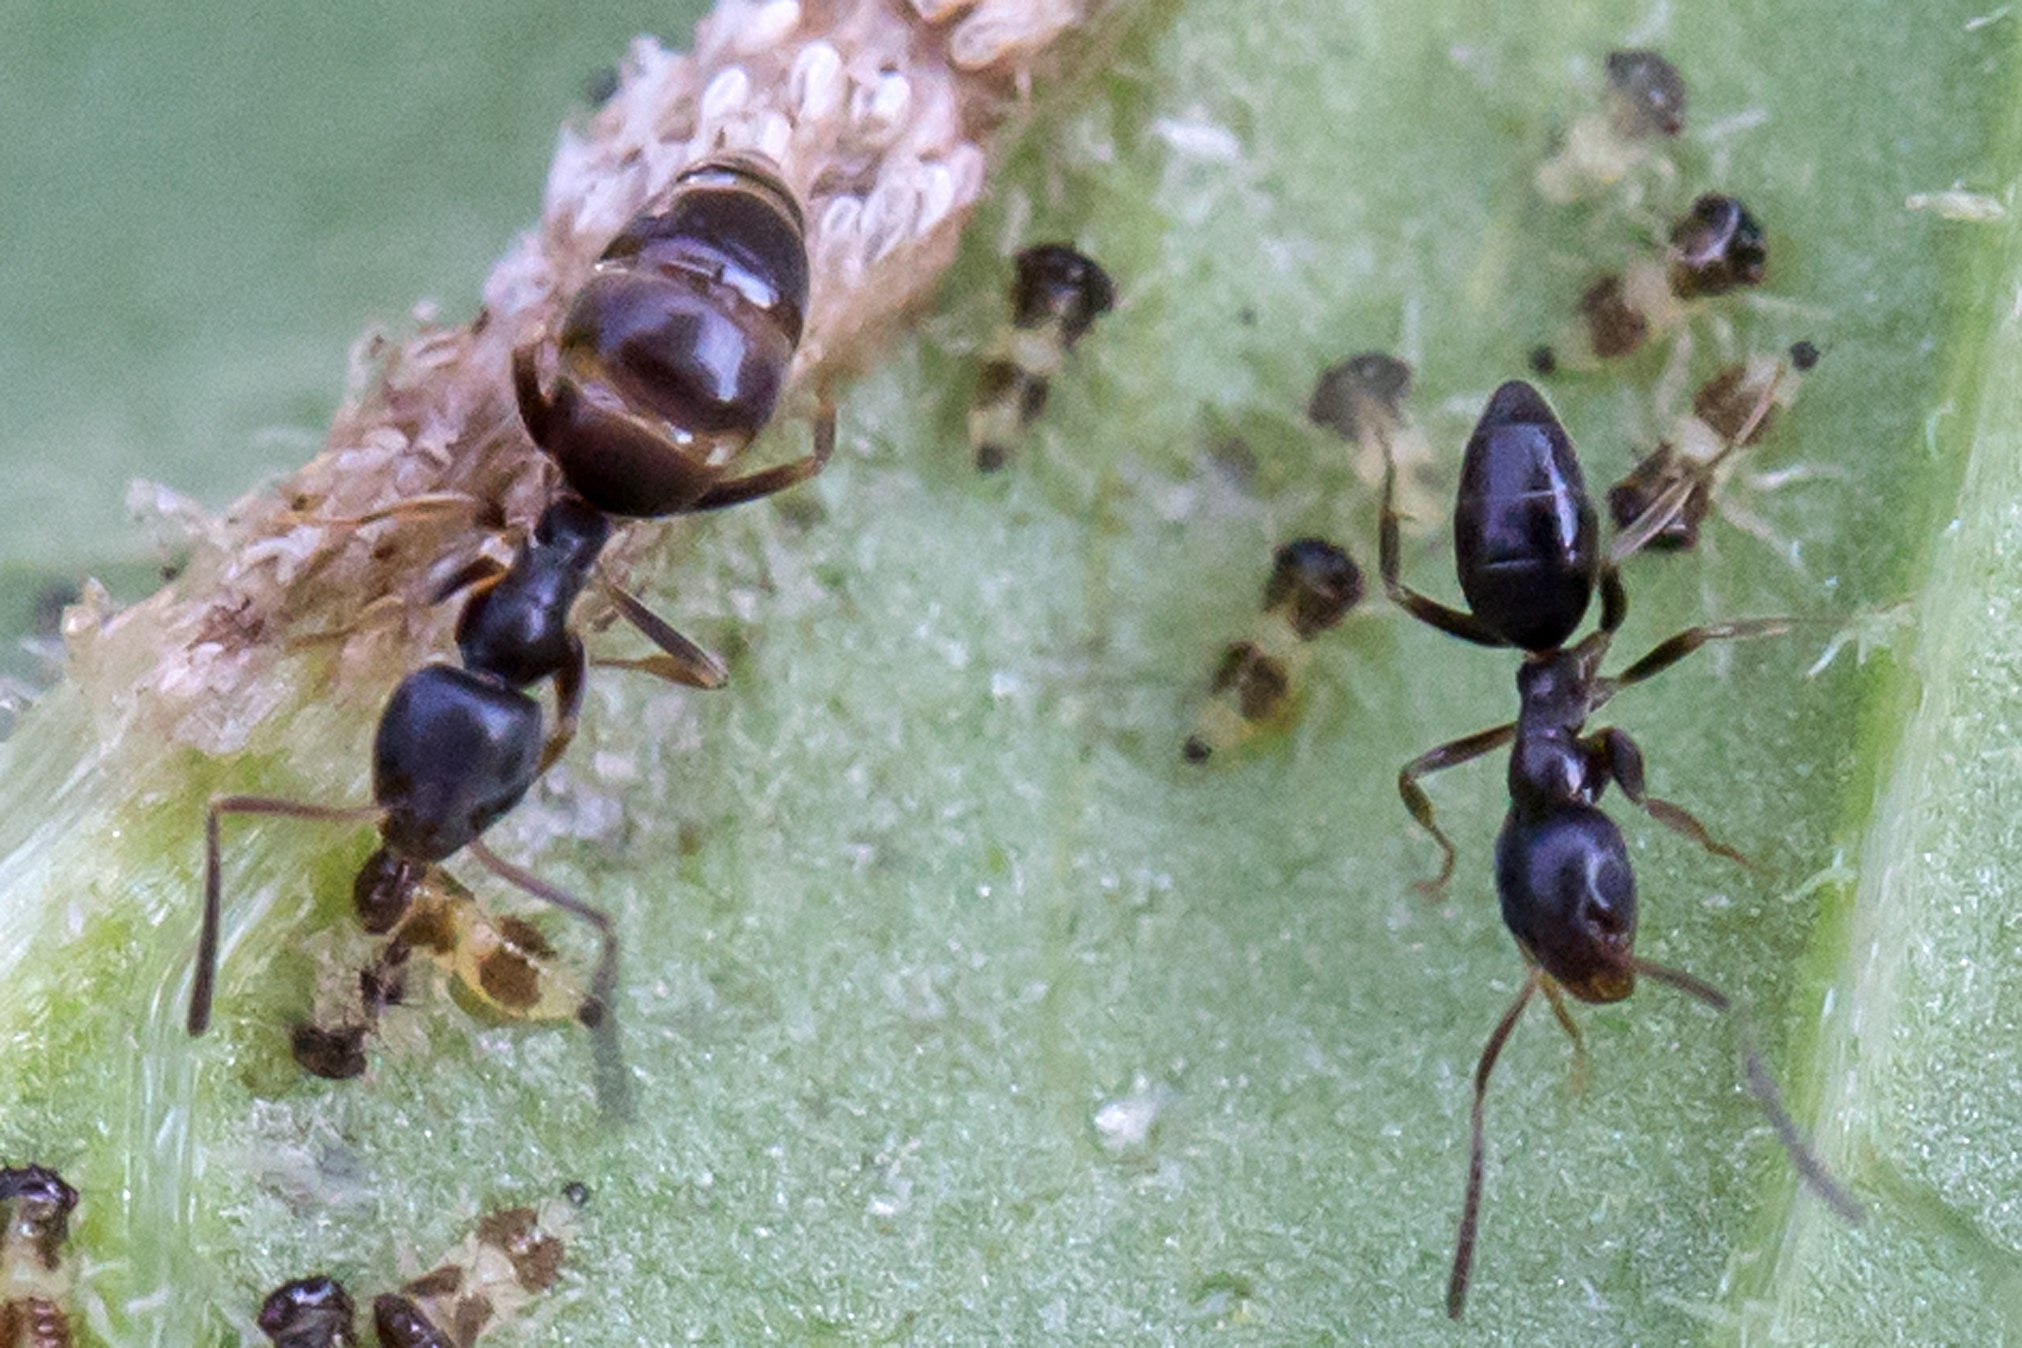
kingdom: Animalia
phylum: Arthropoda
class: Insecta
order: Hymenoptera
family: Formicidae
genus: Tapinoma
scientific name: Tapinoma sessile
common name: Odorous house ant
